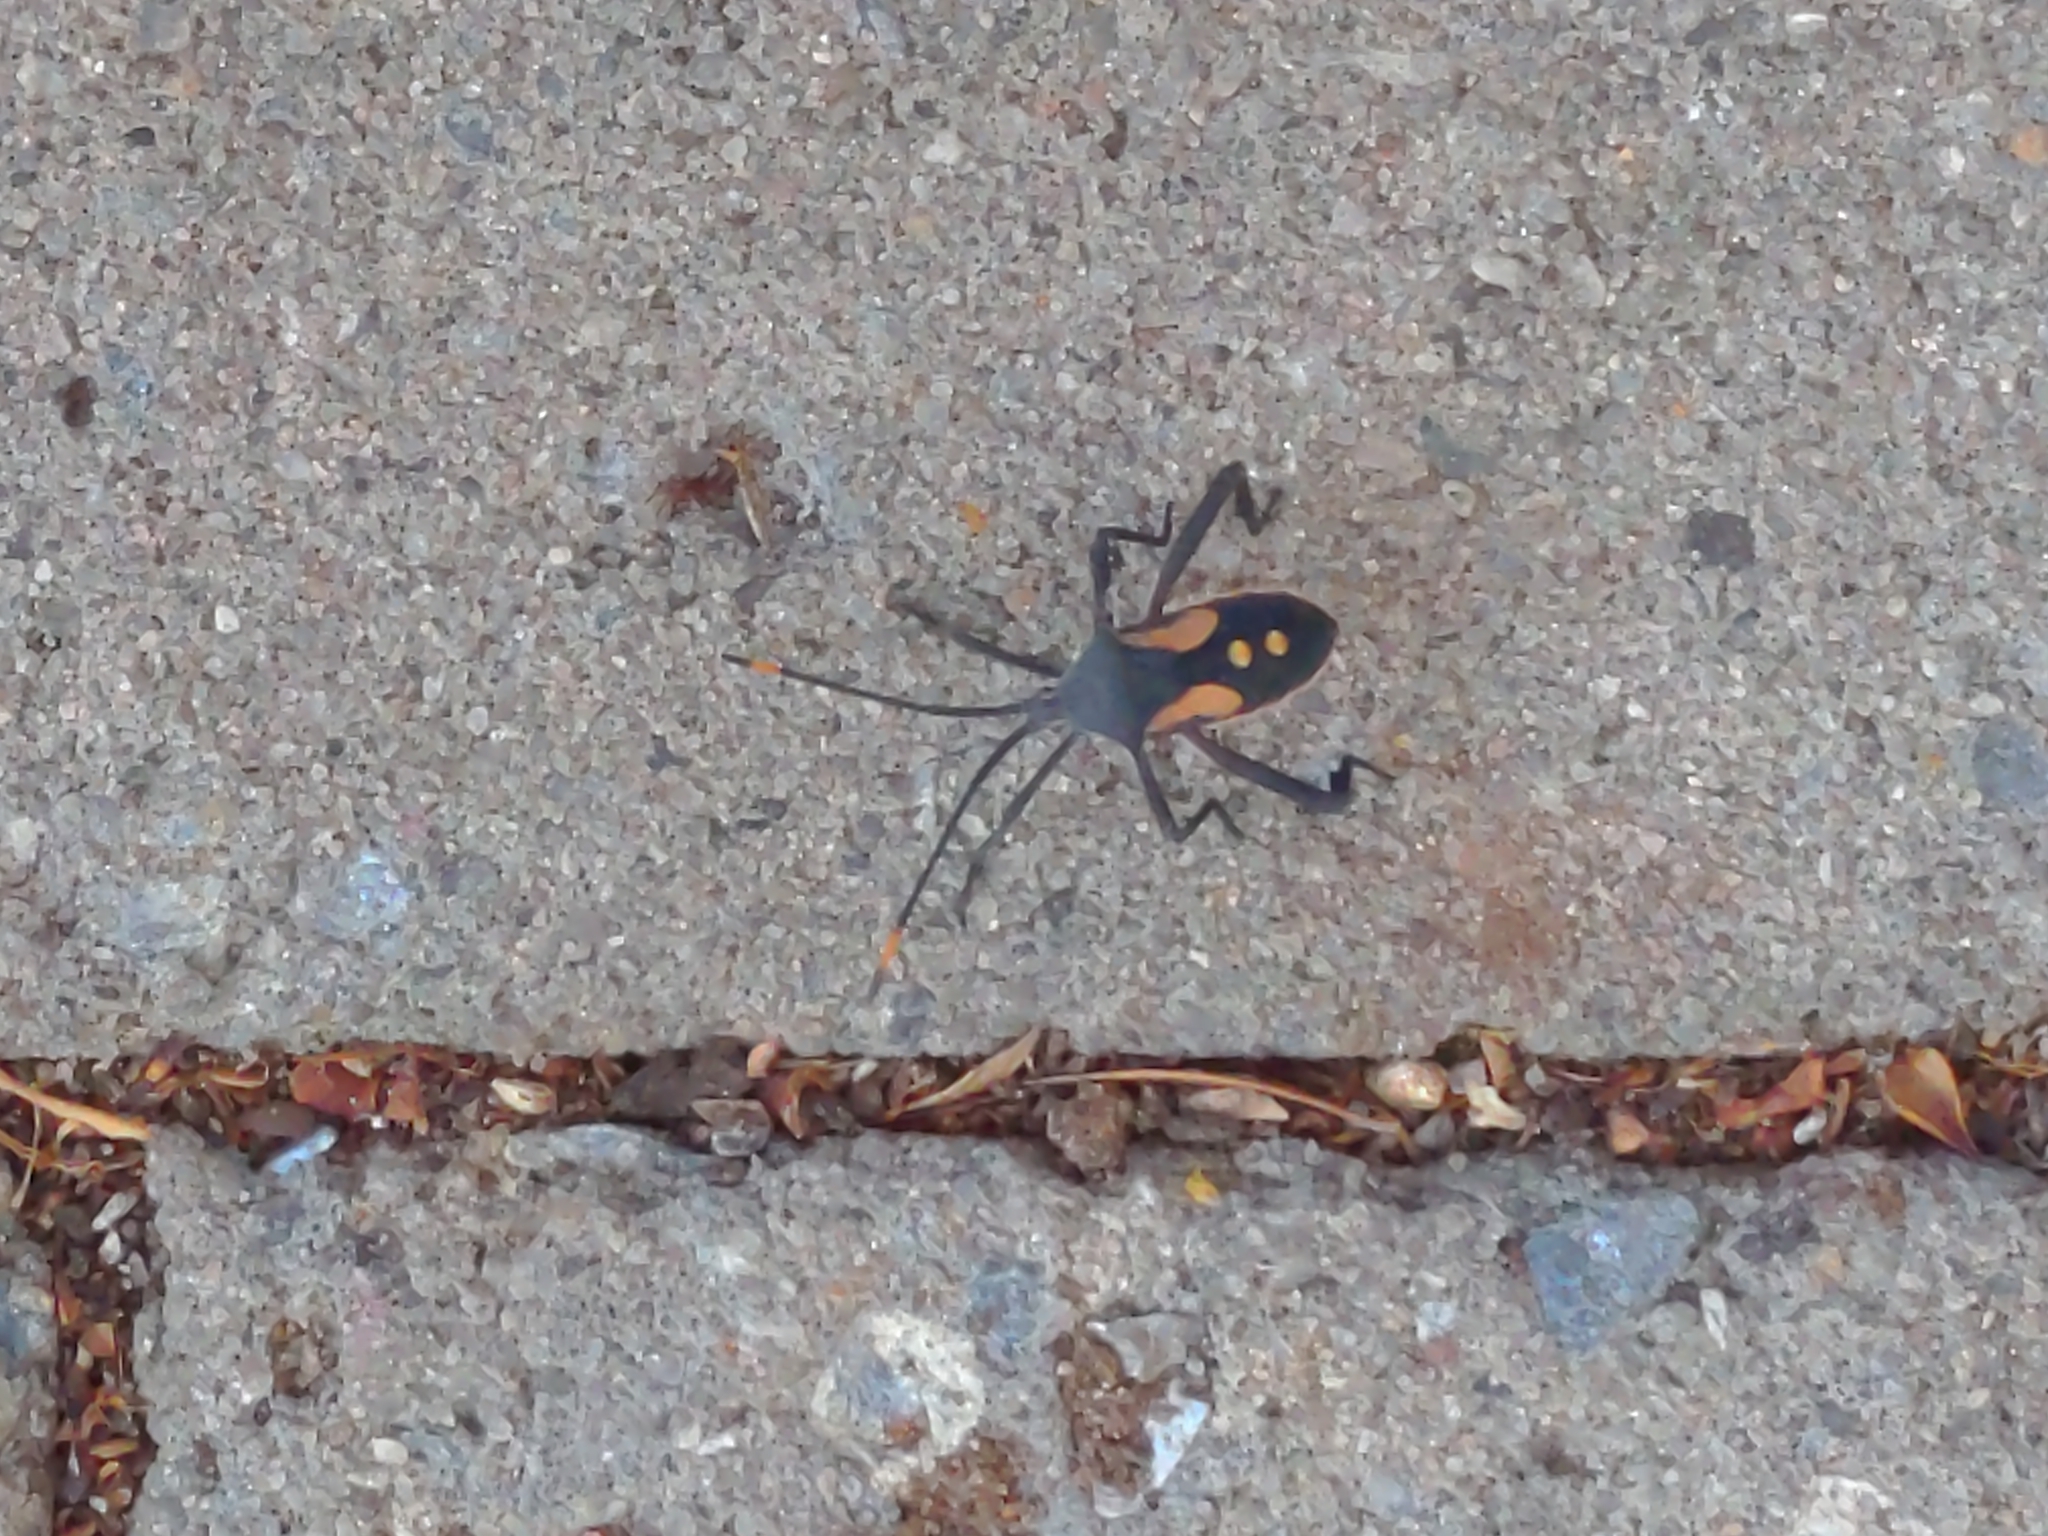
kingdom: Animalia
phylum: Arthropoda
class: Insecta
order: Hemiptera
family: Coreidae
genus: Mictis
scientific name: Mictis profana
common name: Crusader bug
